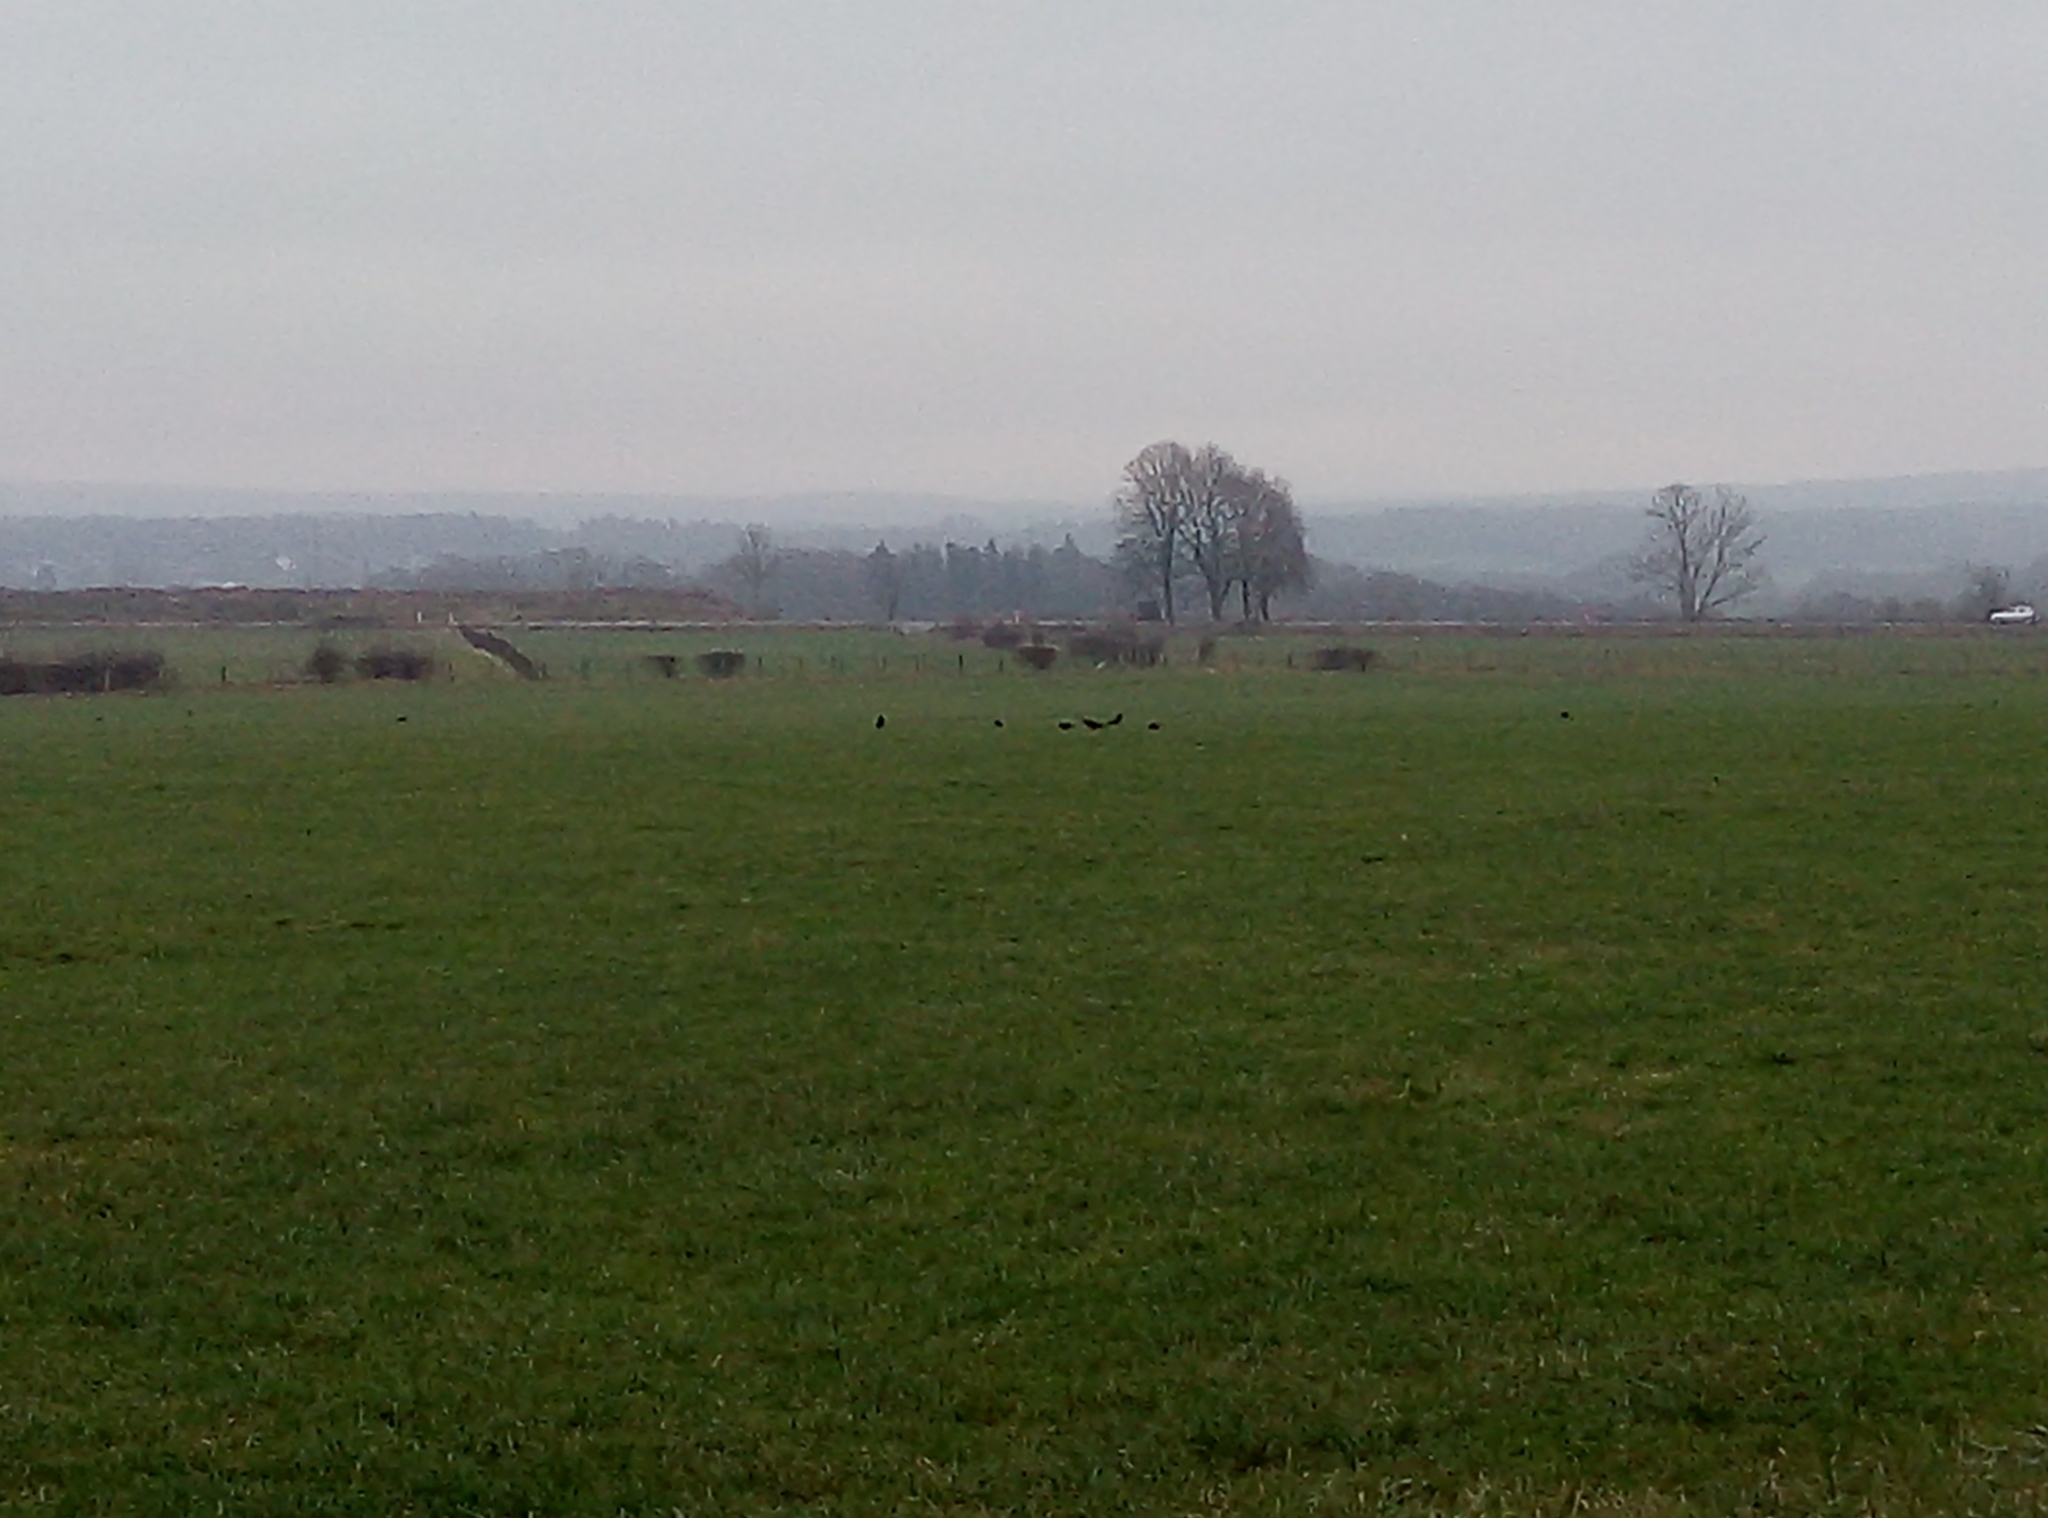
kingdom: Animalia
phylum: Chordata
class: Aves
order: Passeriformes
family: Corvidae
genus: Corvus
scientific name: Corvus corone
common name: Carrion crow
